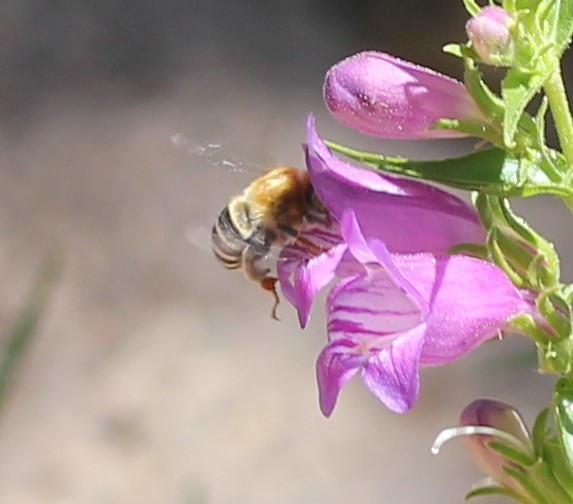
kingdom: Animalia
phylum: Arthropoda
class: Insecta
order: Hymenoptera
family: Apidae
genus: Anthophora
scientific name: Anthophora californica
